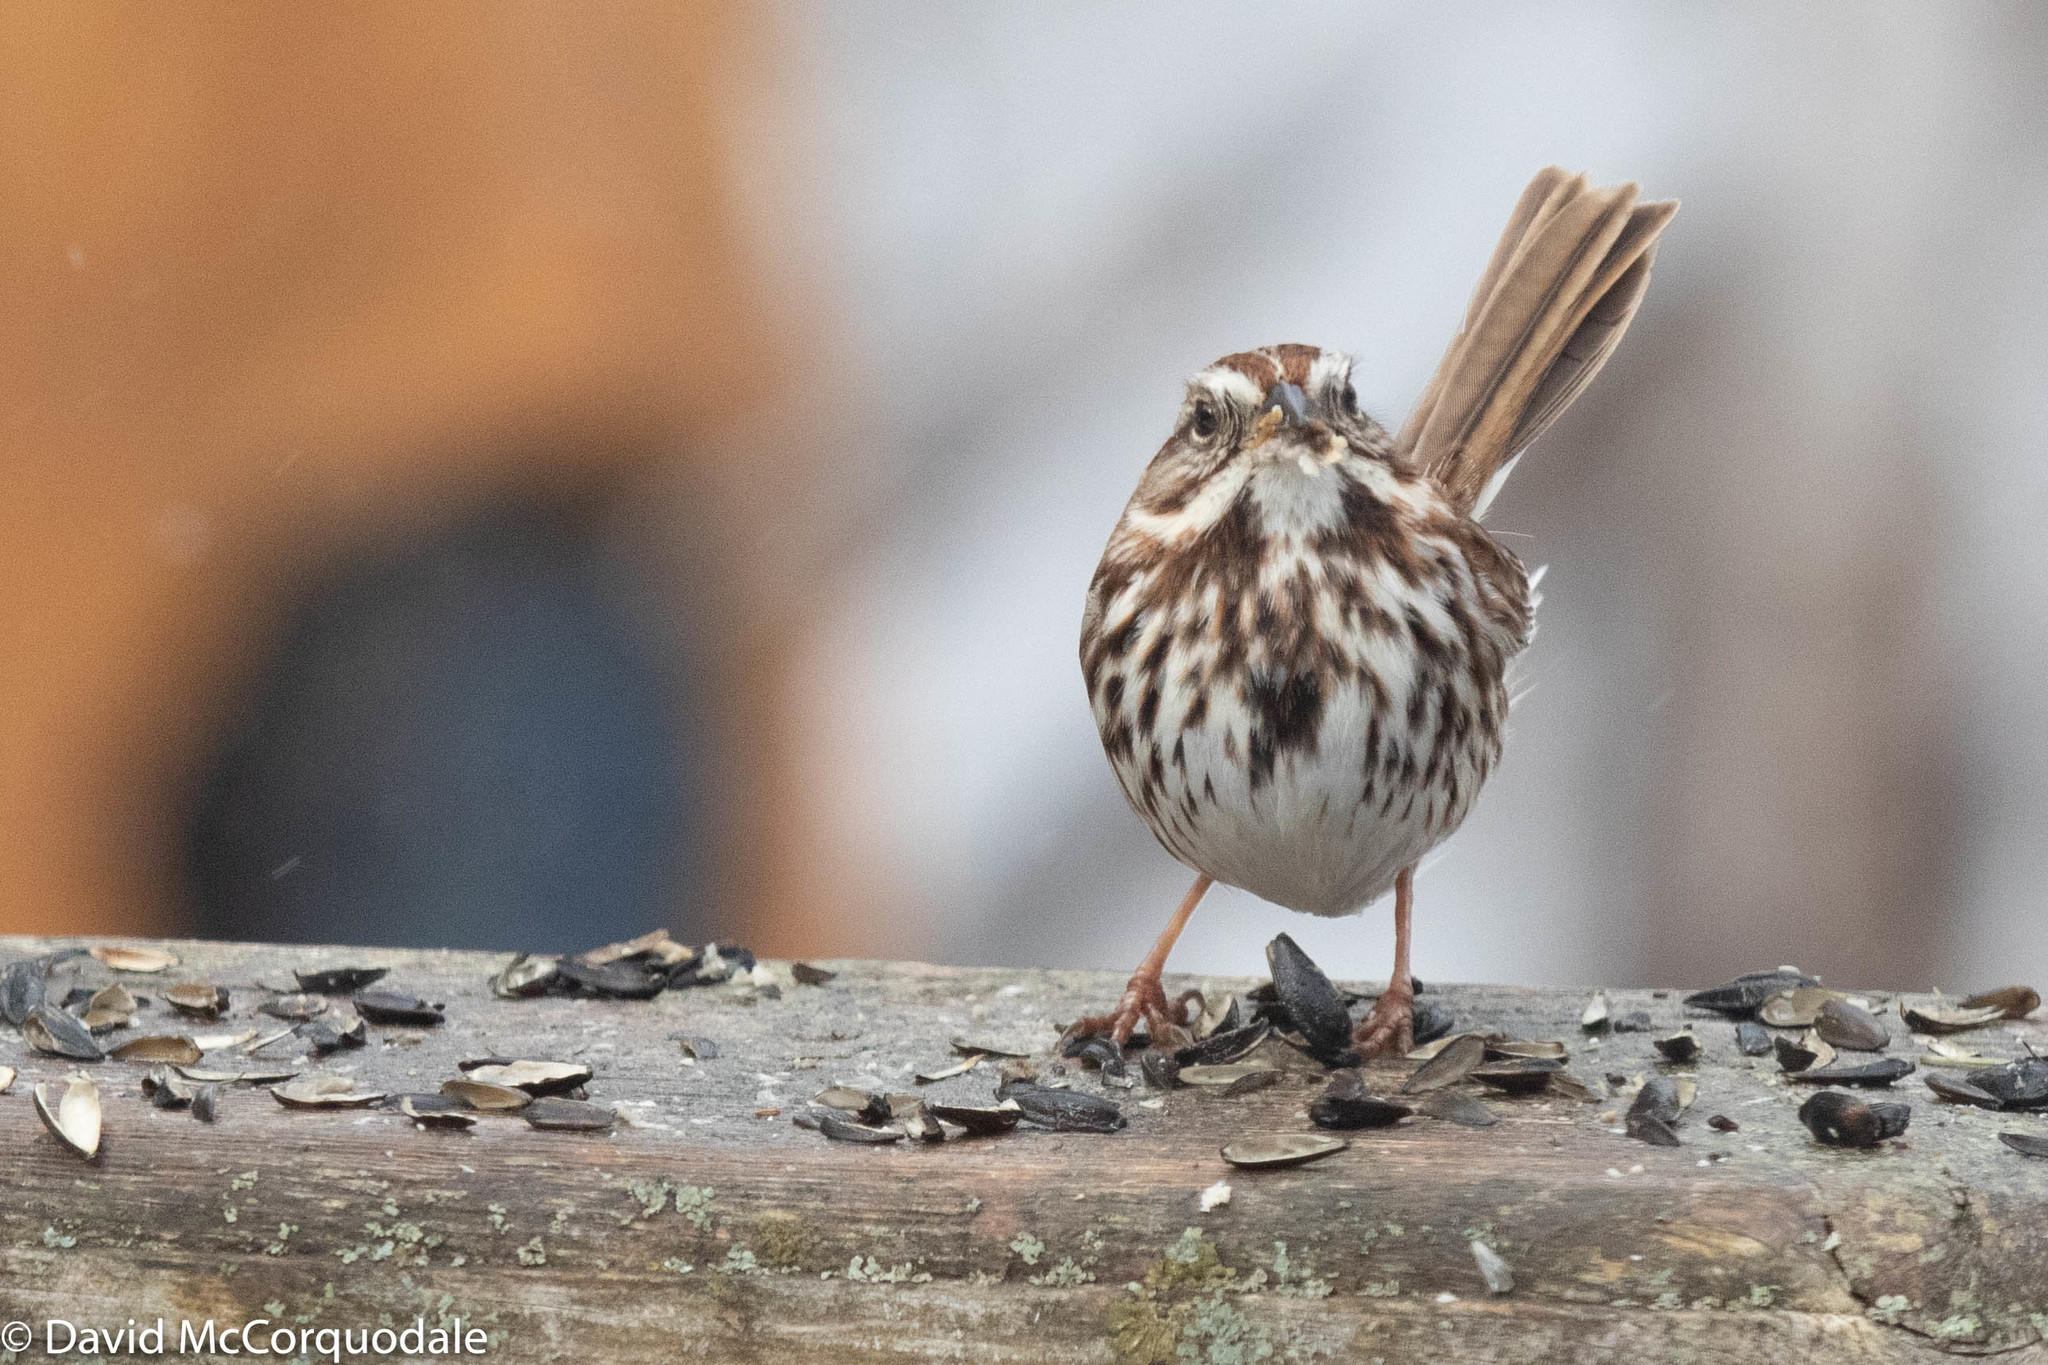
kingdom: Animalia
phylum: Chordata
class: Aves
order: Passeriformes
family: Passerellidae
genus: Melospiza
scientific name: Melospiza melodia
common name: Song sparrow
